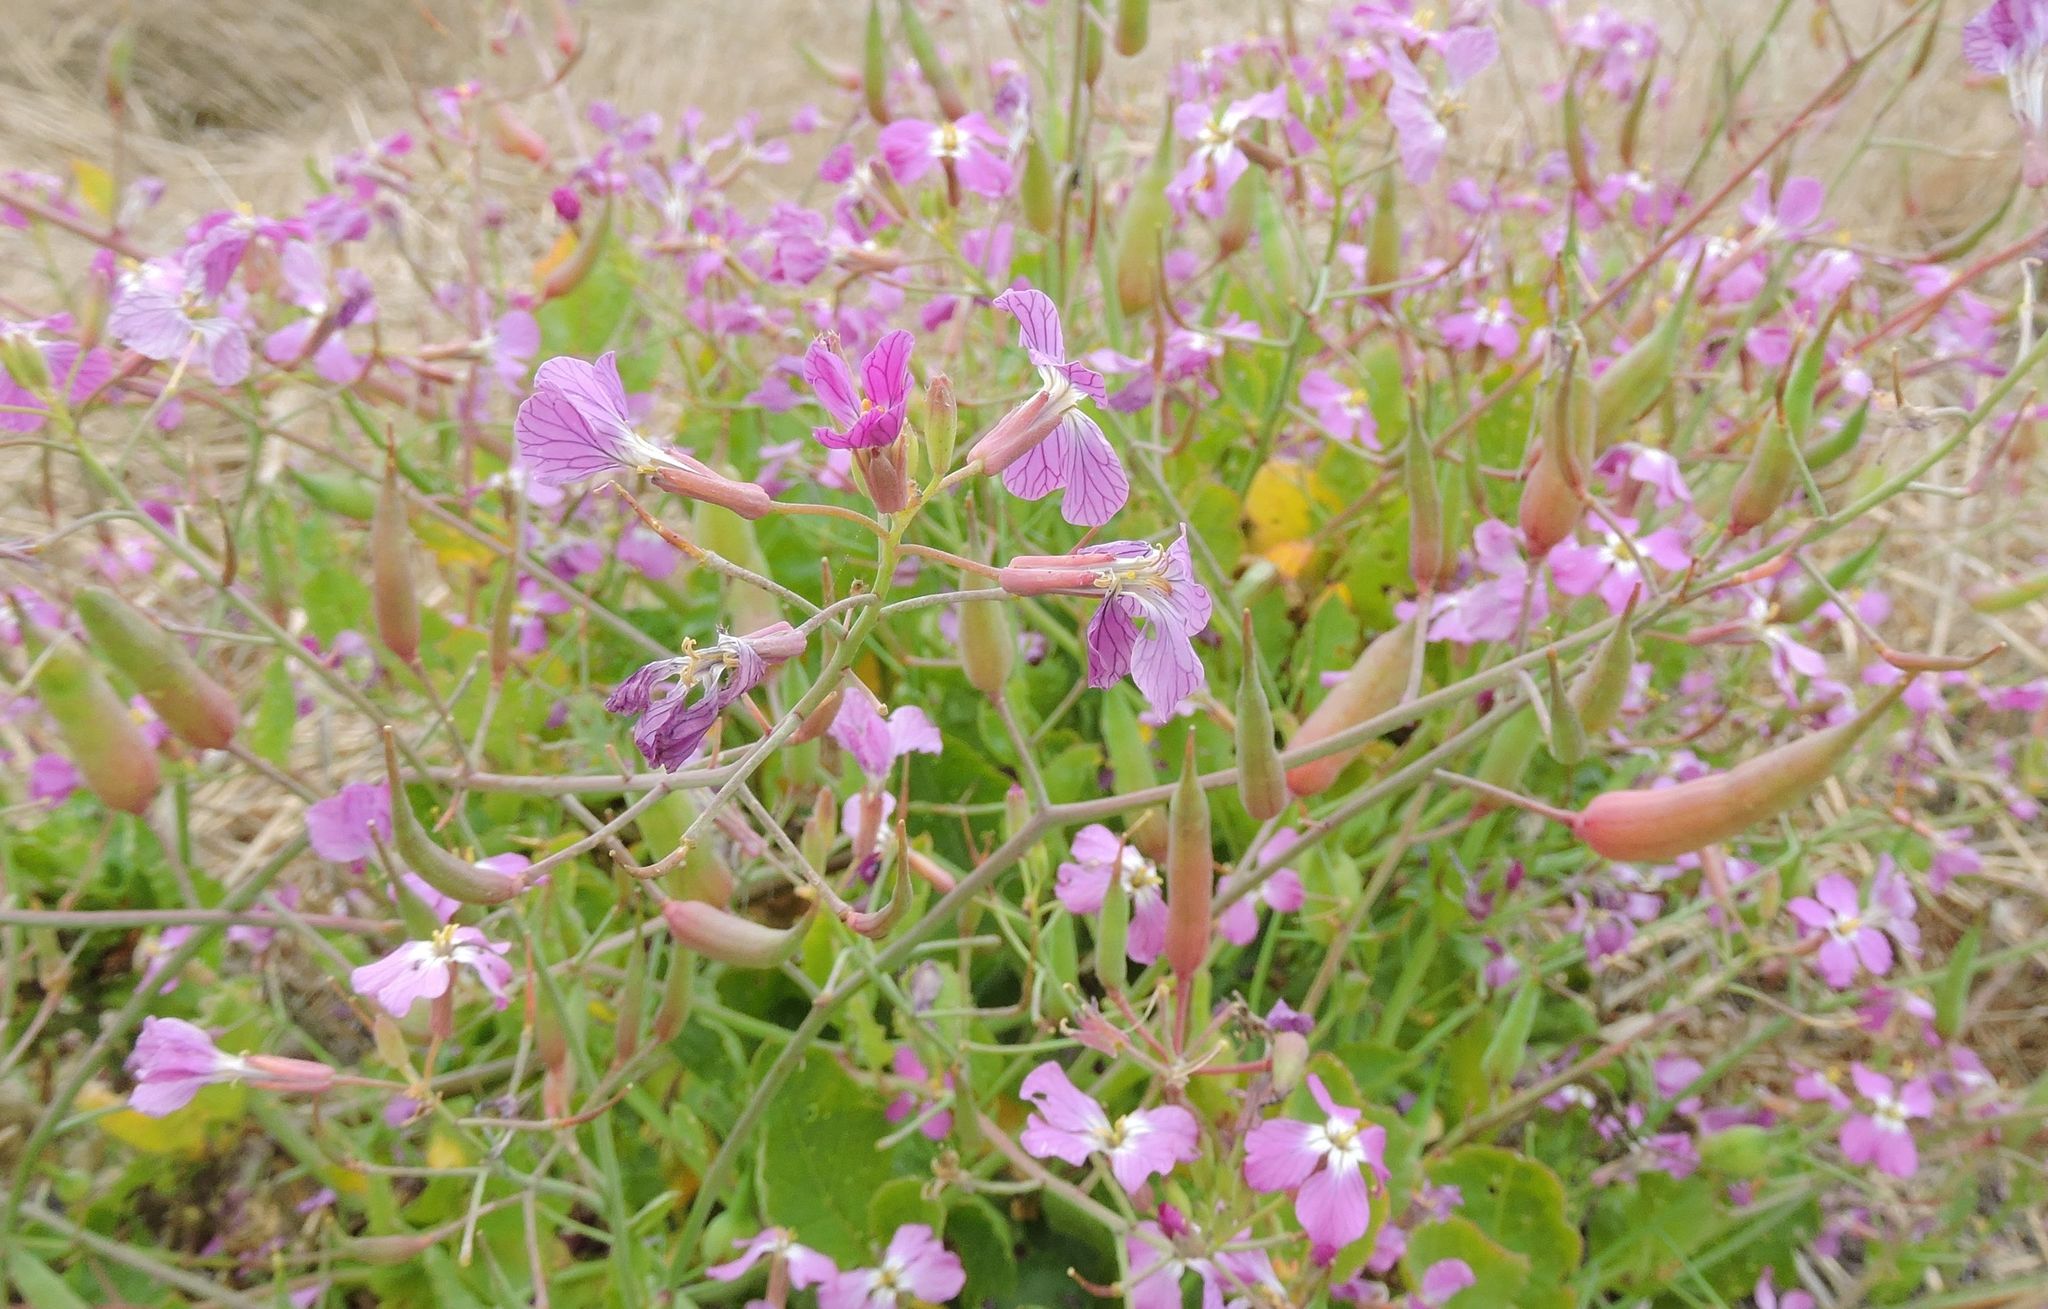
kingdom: Plantae
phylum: Tracheophyta
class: Magnoliopsida
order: Brassicales
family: Brassicaceae
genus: Raphanus
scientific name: Raphanus sativus
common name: Cultivated radish
